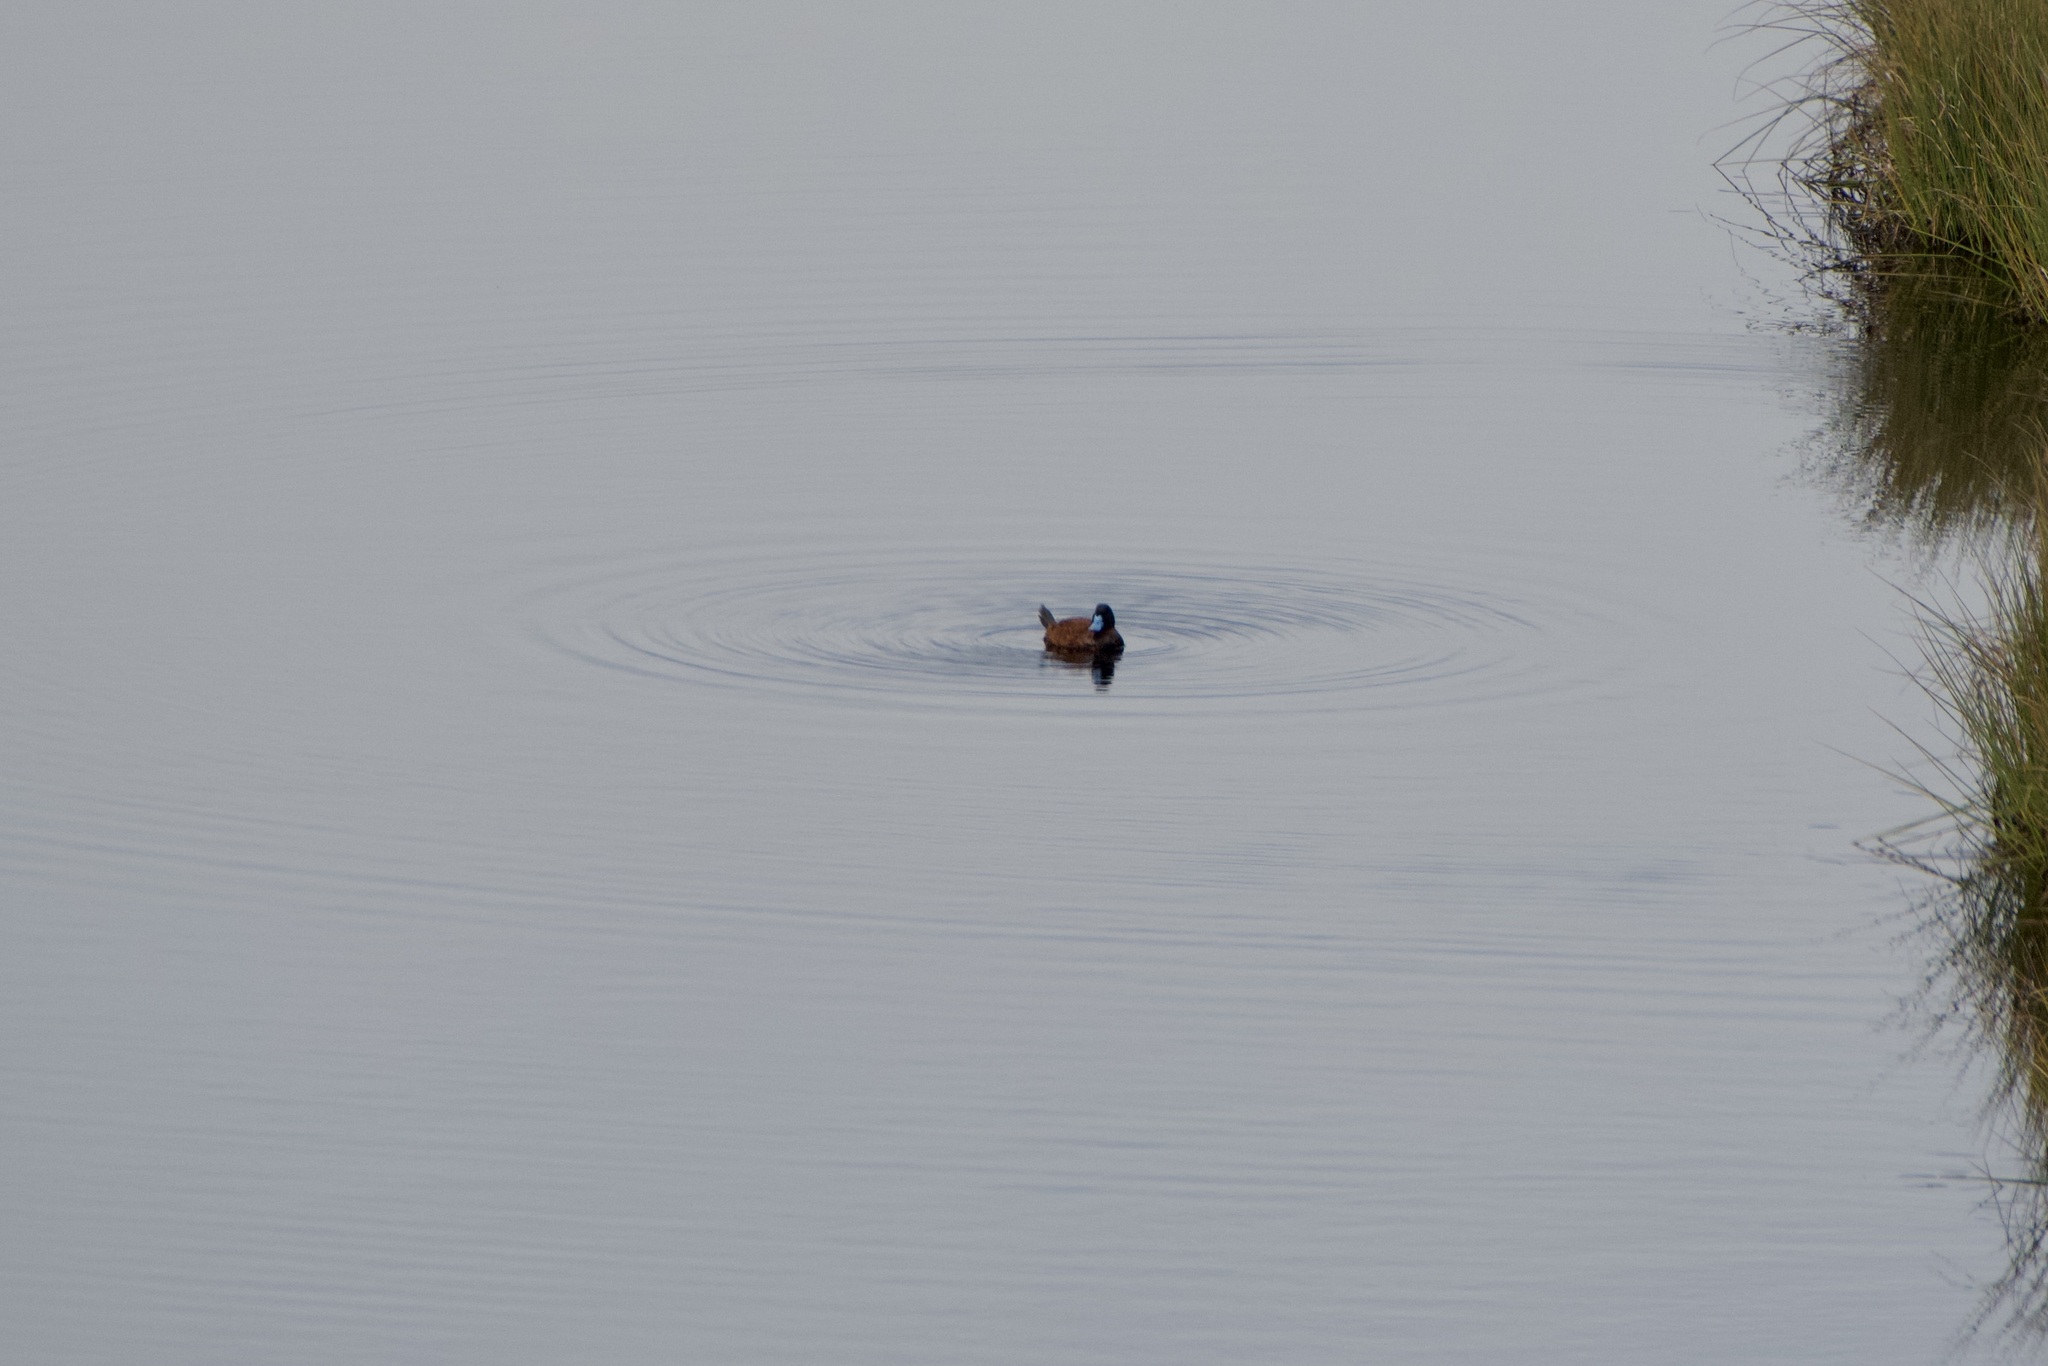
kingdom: Animalia
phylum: Chordata
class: Aves
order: Anseriformes
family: Anatidae
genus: Oxyura
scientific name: Oxyura ferruginea
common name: Andean duck
